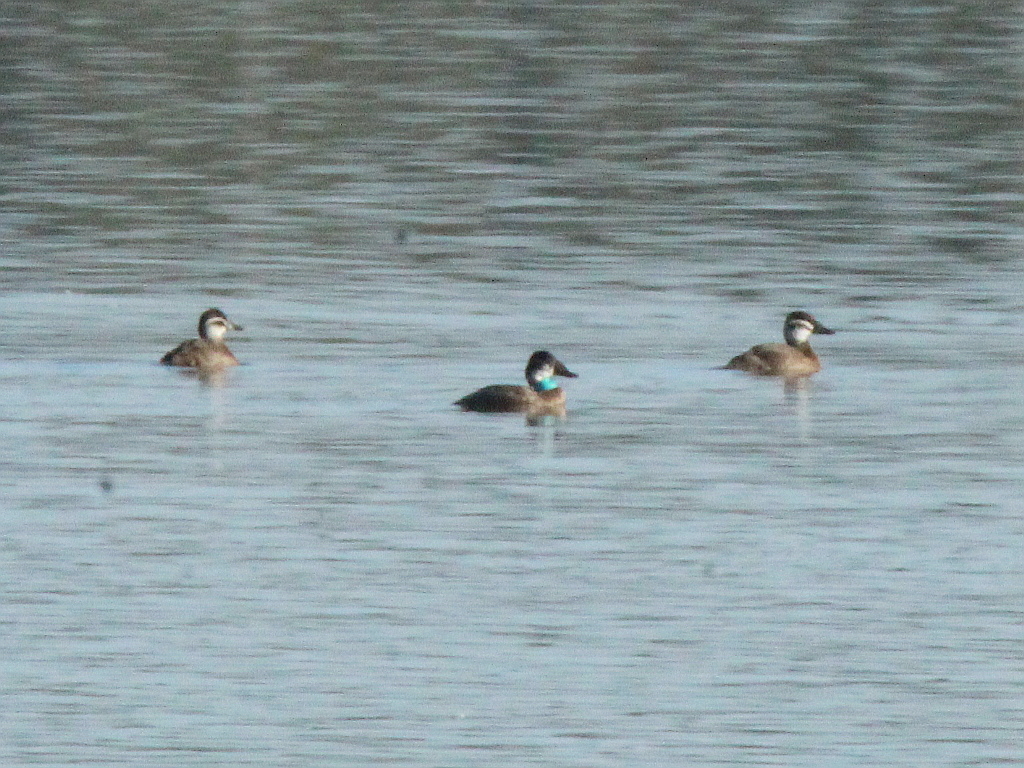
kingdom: Animalia
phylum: Chordata
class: Aves
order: Anseriformes
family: Anatidae
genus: Oxyura
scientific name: Oxyura leucocephala
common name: White-headed duck
